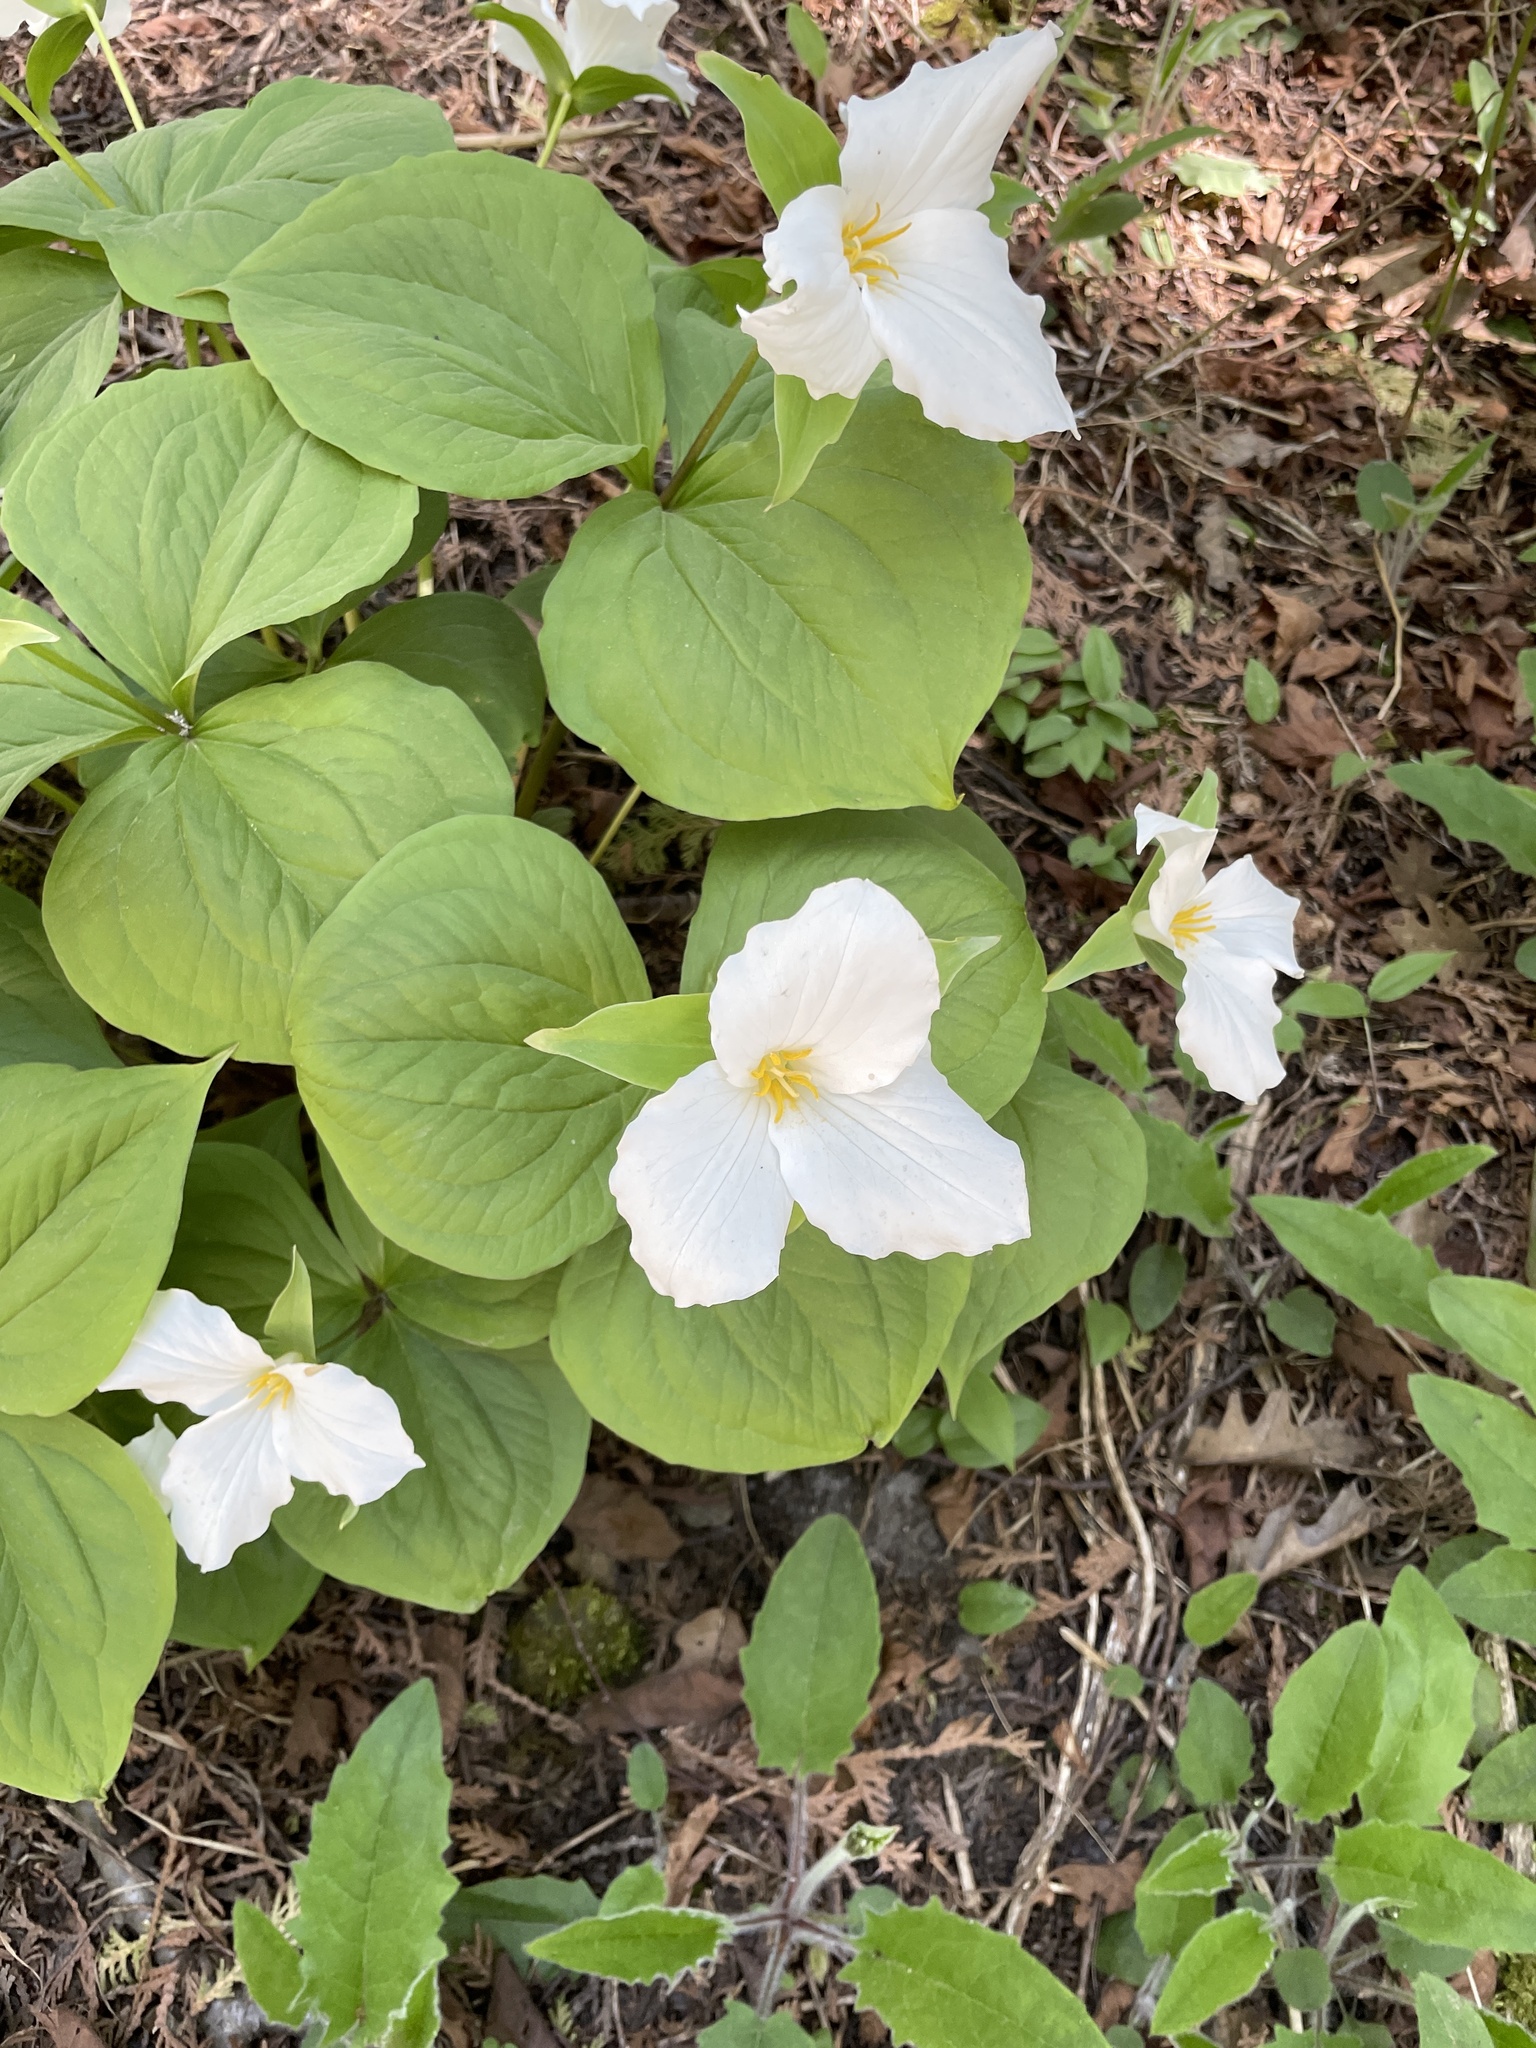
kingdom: Plantae
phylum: Tracheophyta
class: Liliopsida
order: Liliales
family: Melanthiaceae
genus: Trillium
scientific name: Trillium grandiflorum
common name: Great white trillium
